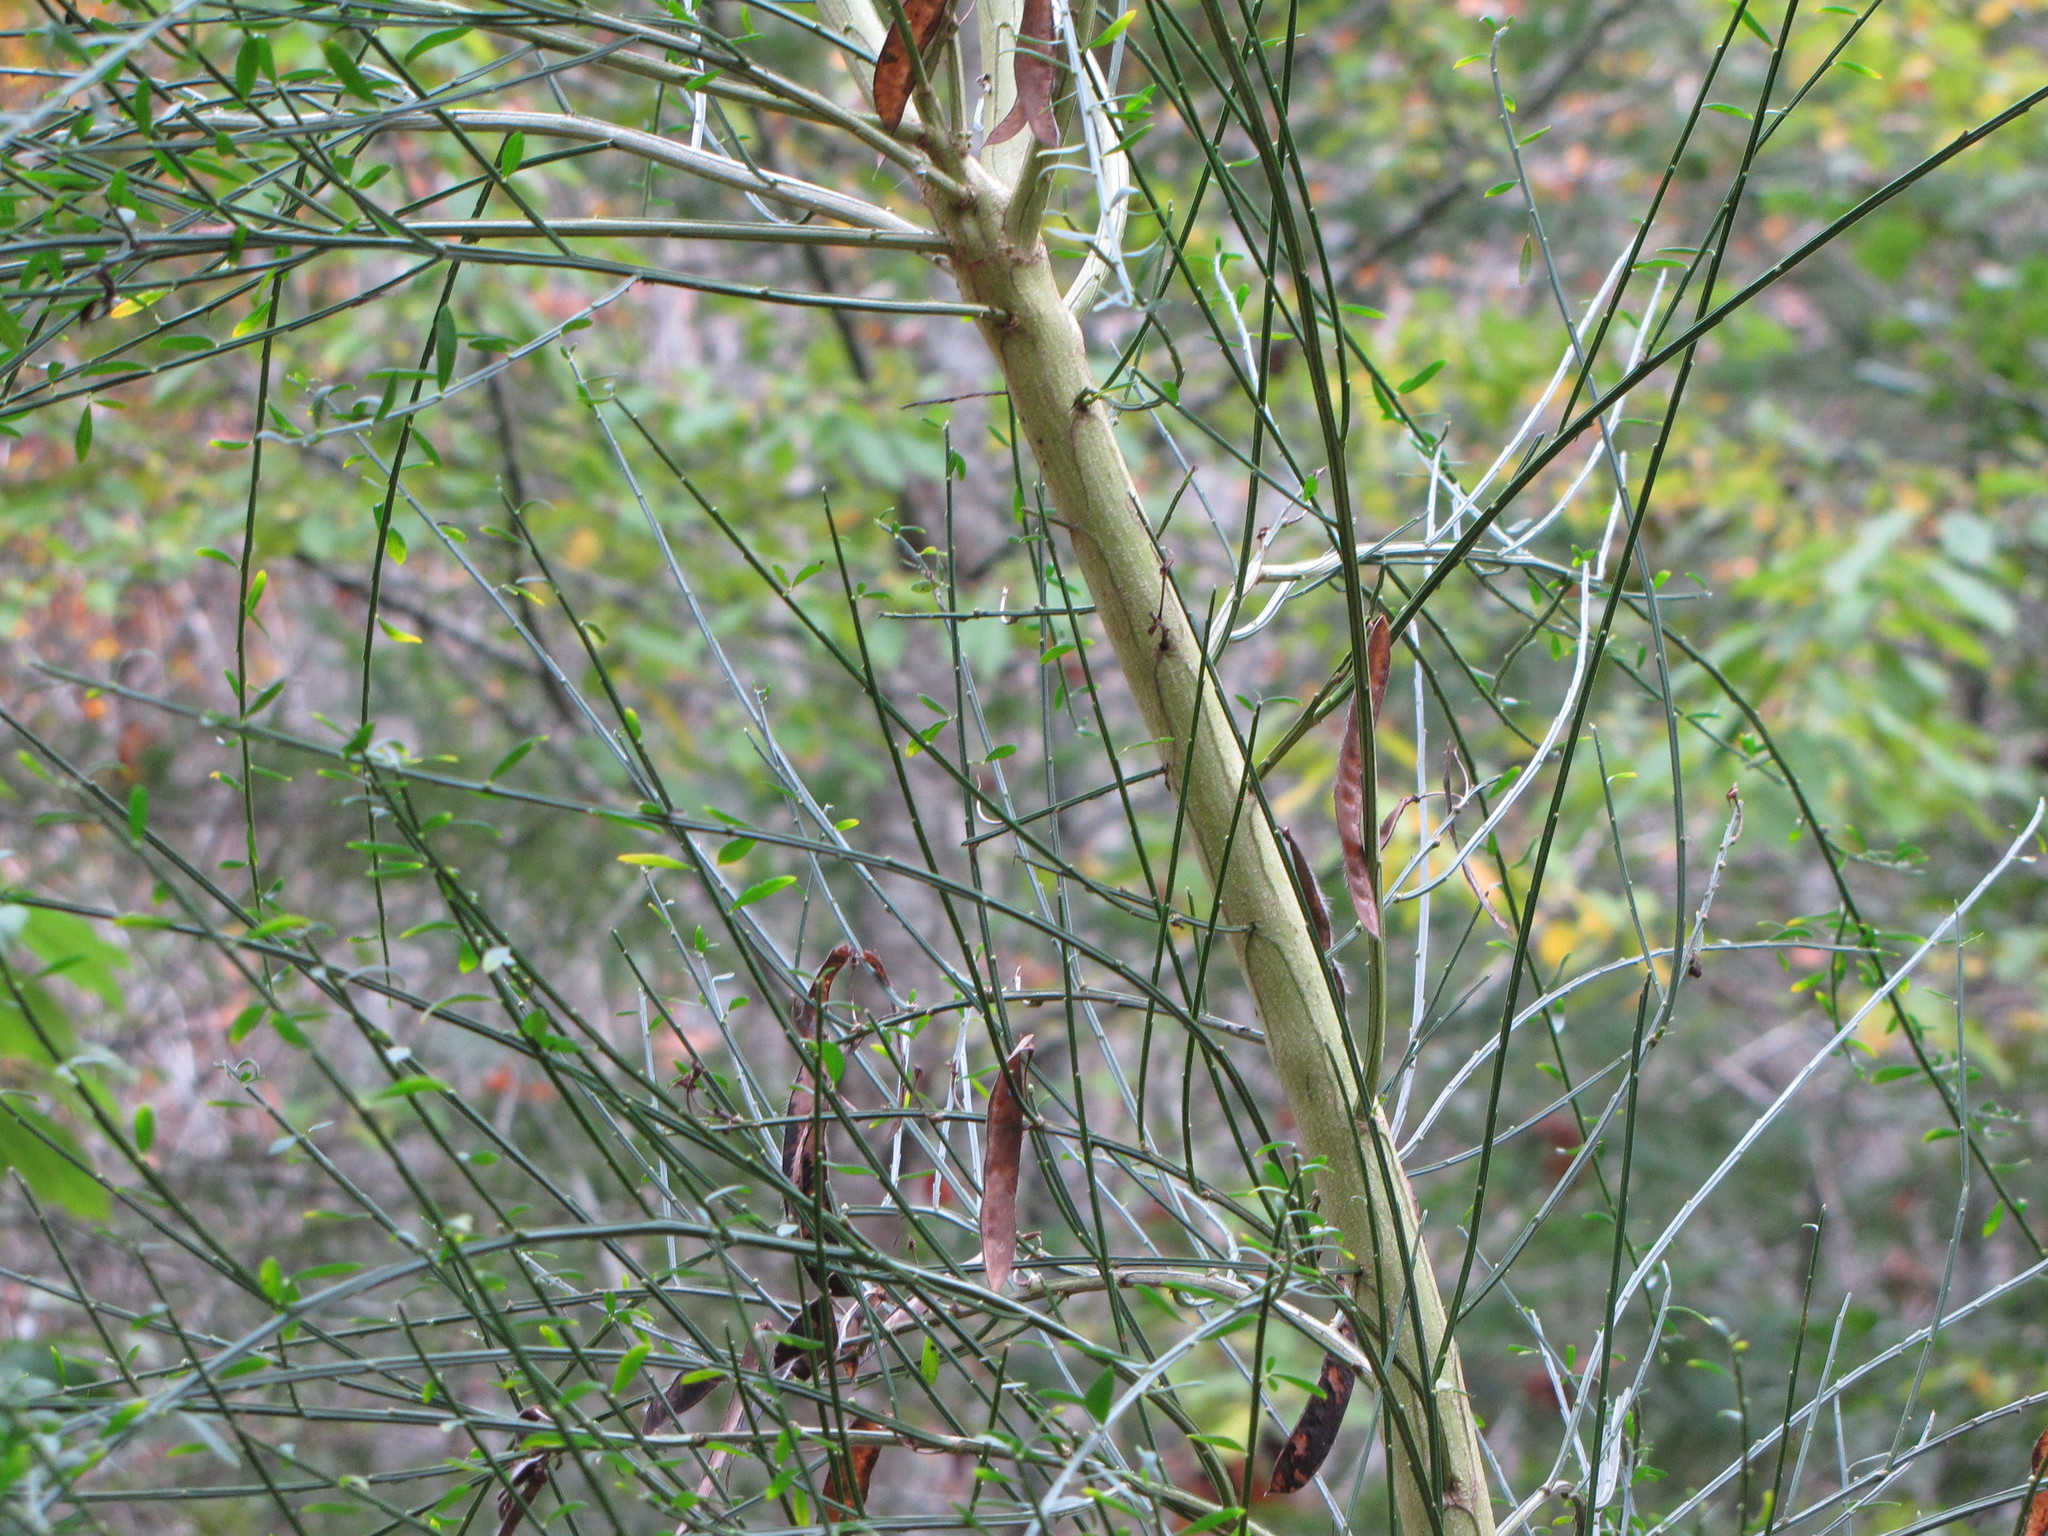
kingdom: Plantae
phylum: Tracheophyta
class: Magnoliopsida
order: Fabales
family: Fabaceae
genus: Cytisus
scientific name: Cytisus scoparius
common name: Scotch broom
